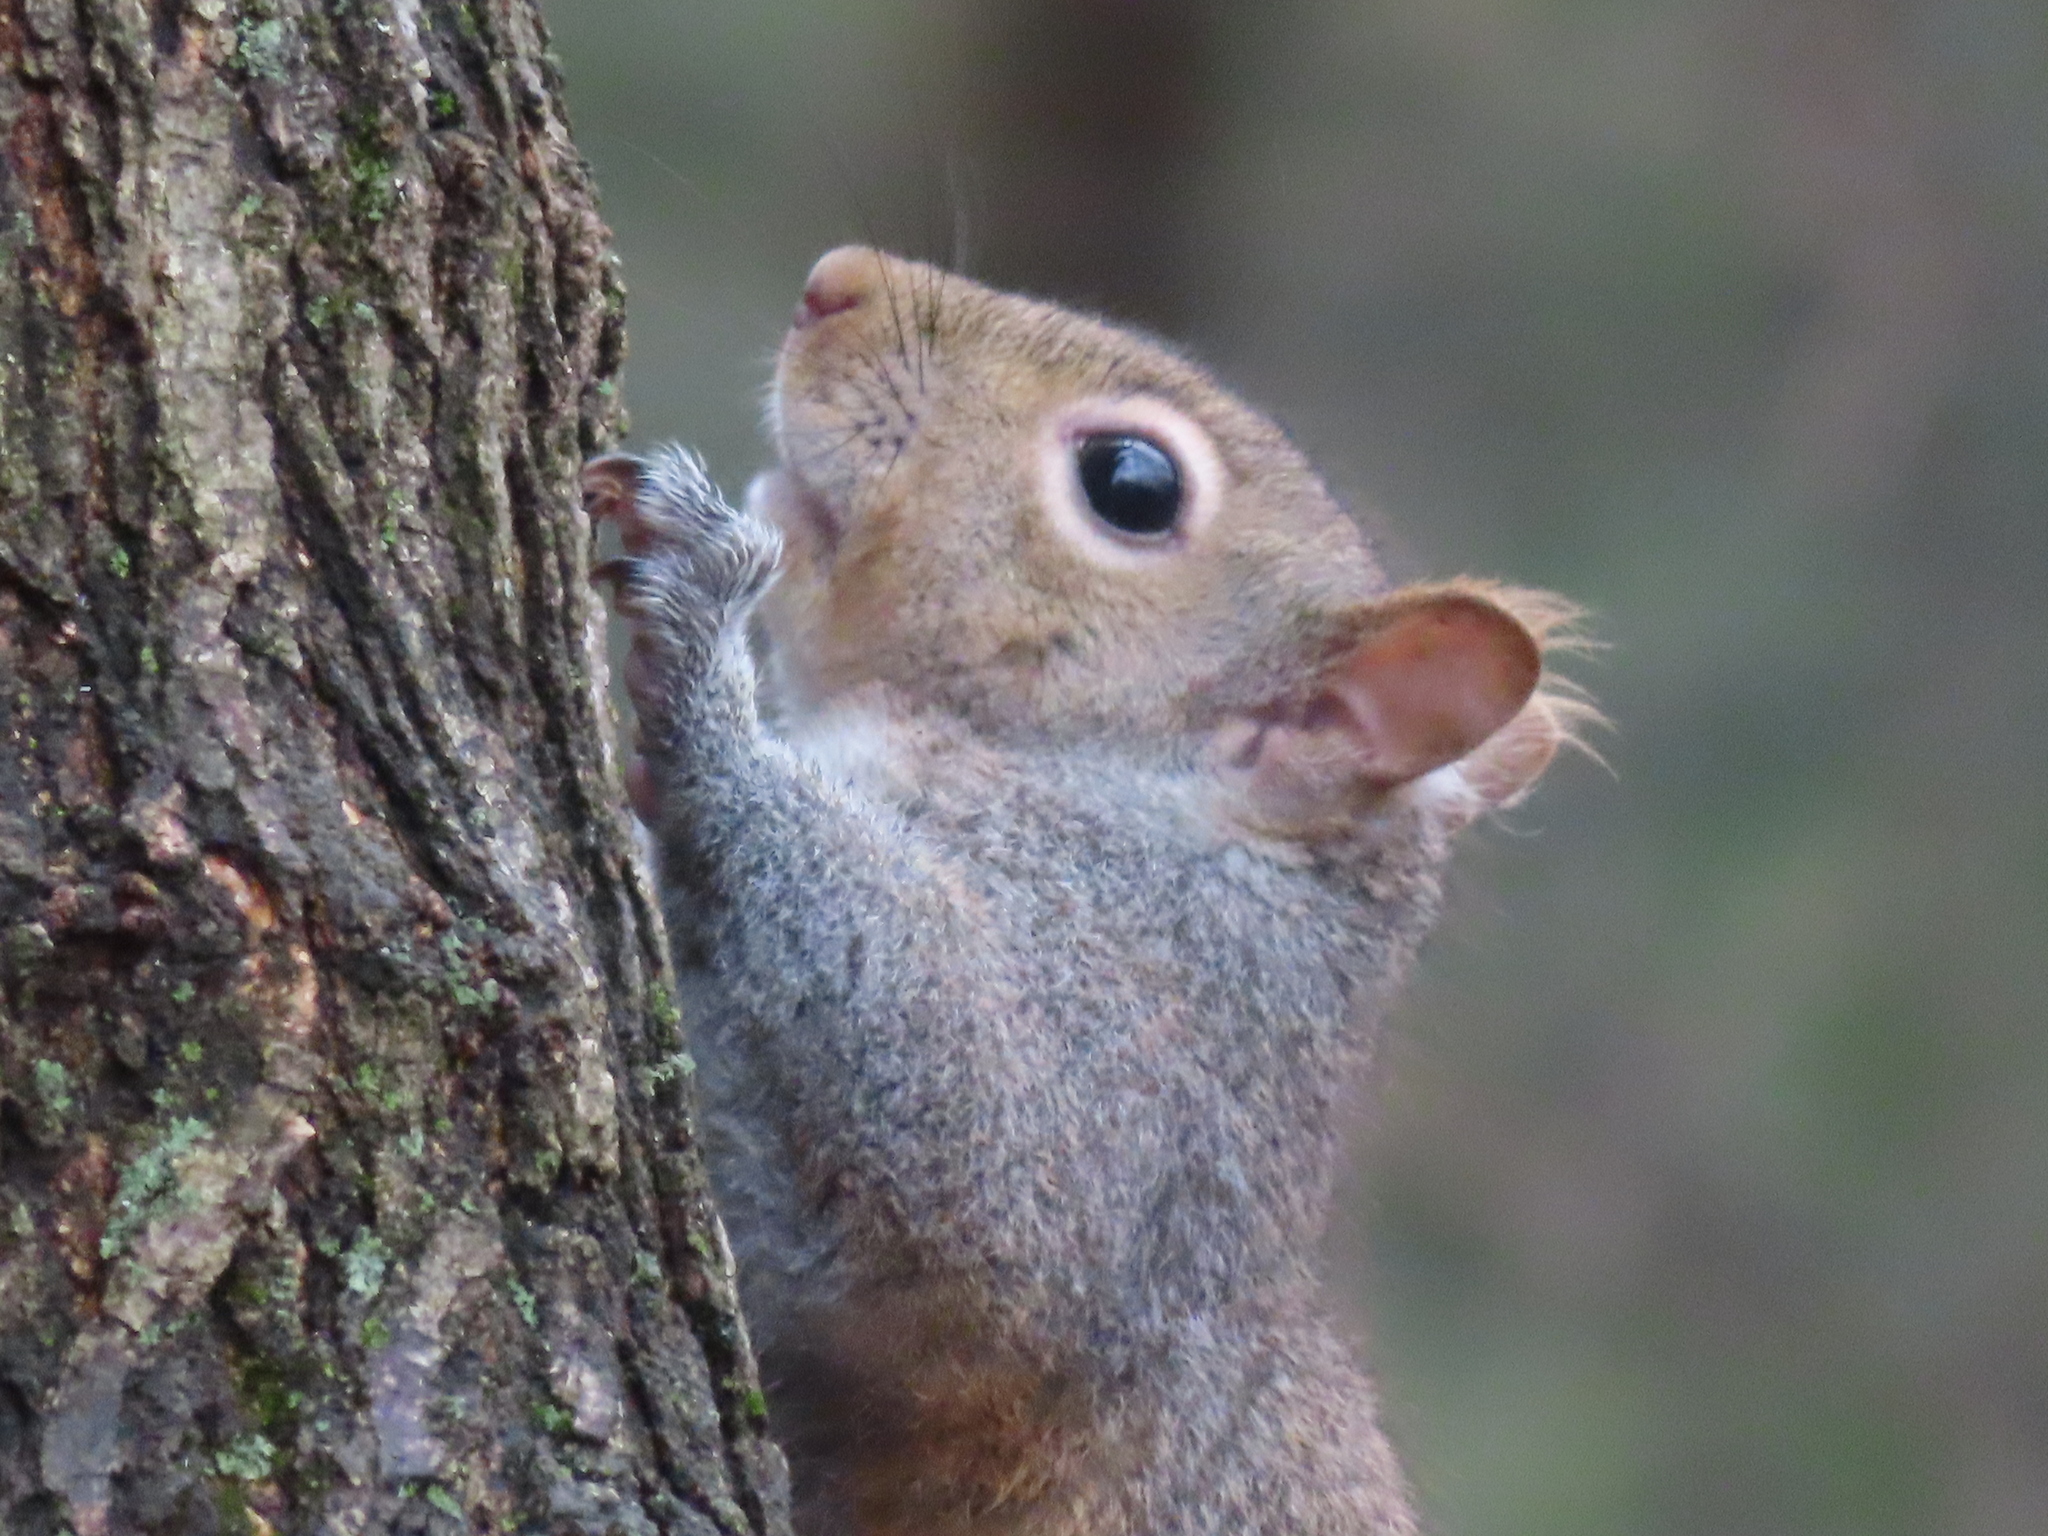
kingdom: Animalia
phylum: Chordata
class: Mammalia
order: Rodentia
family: Sciuridae
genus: Sciurus
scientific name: Sciurus carolinensis
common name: Eastern gray squirrel
